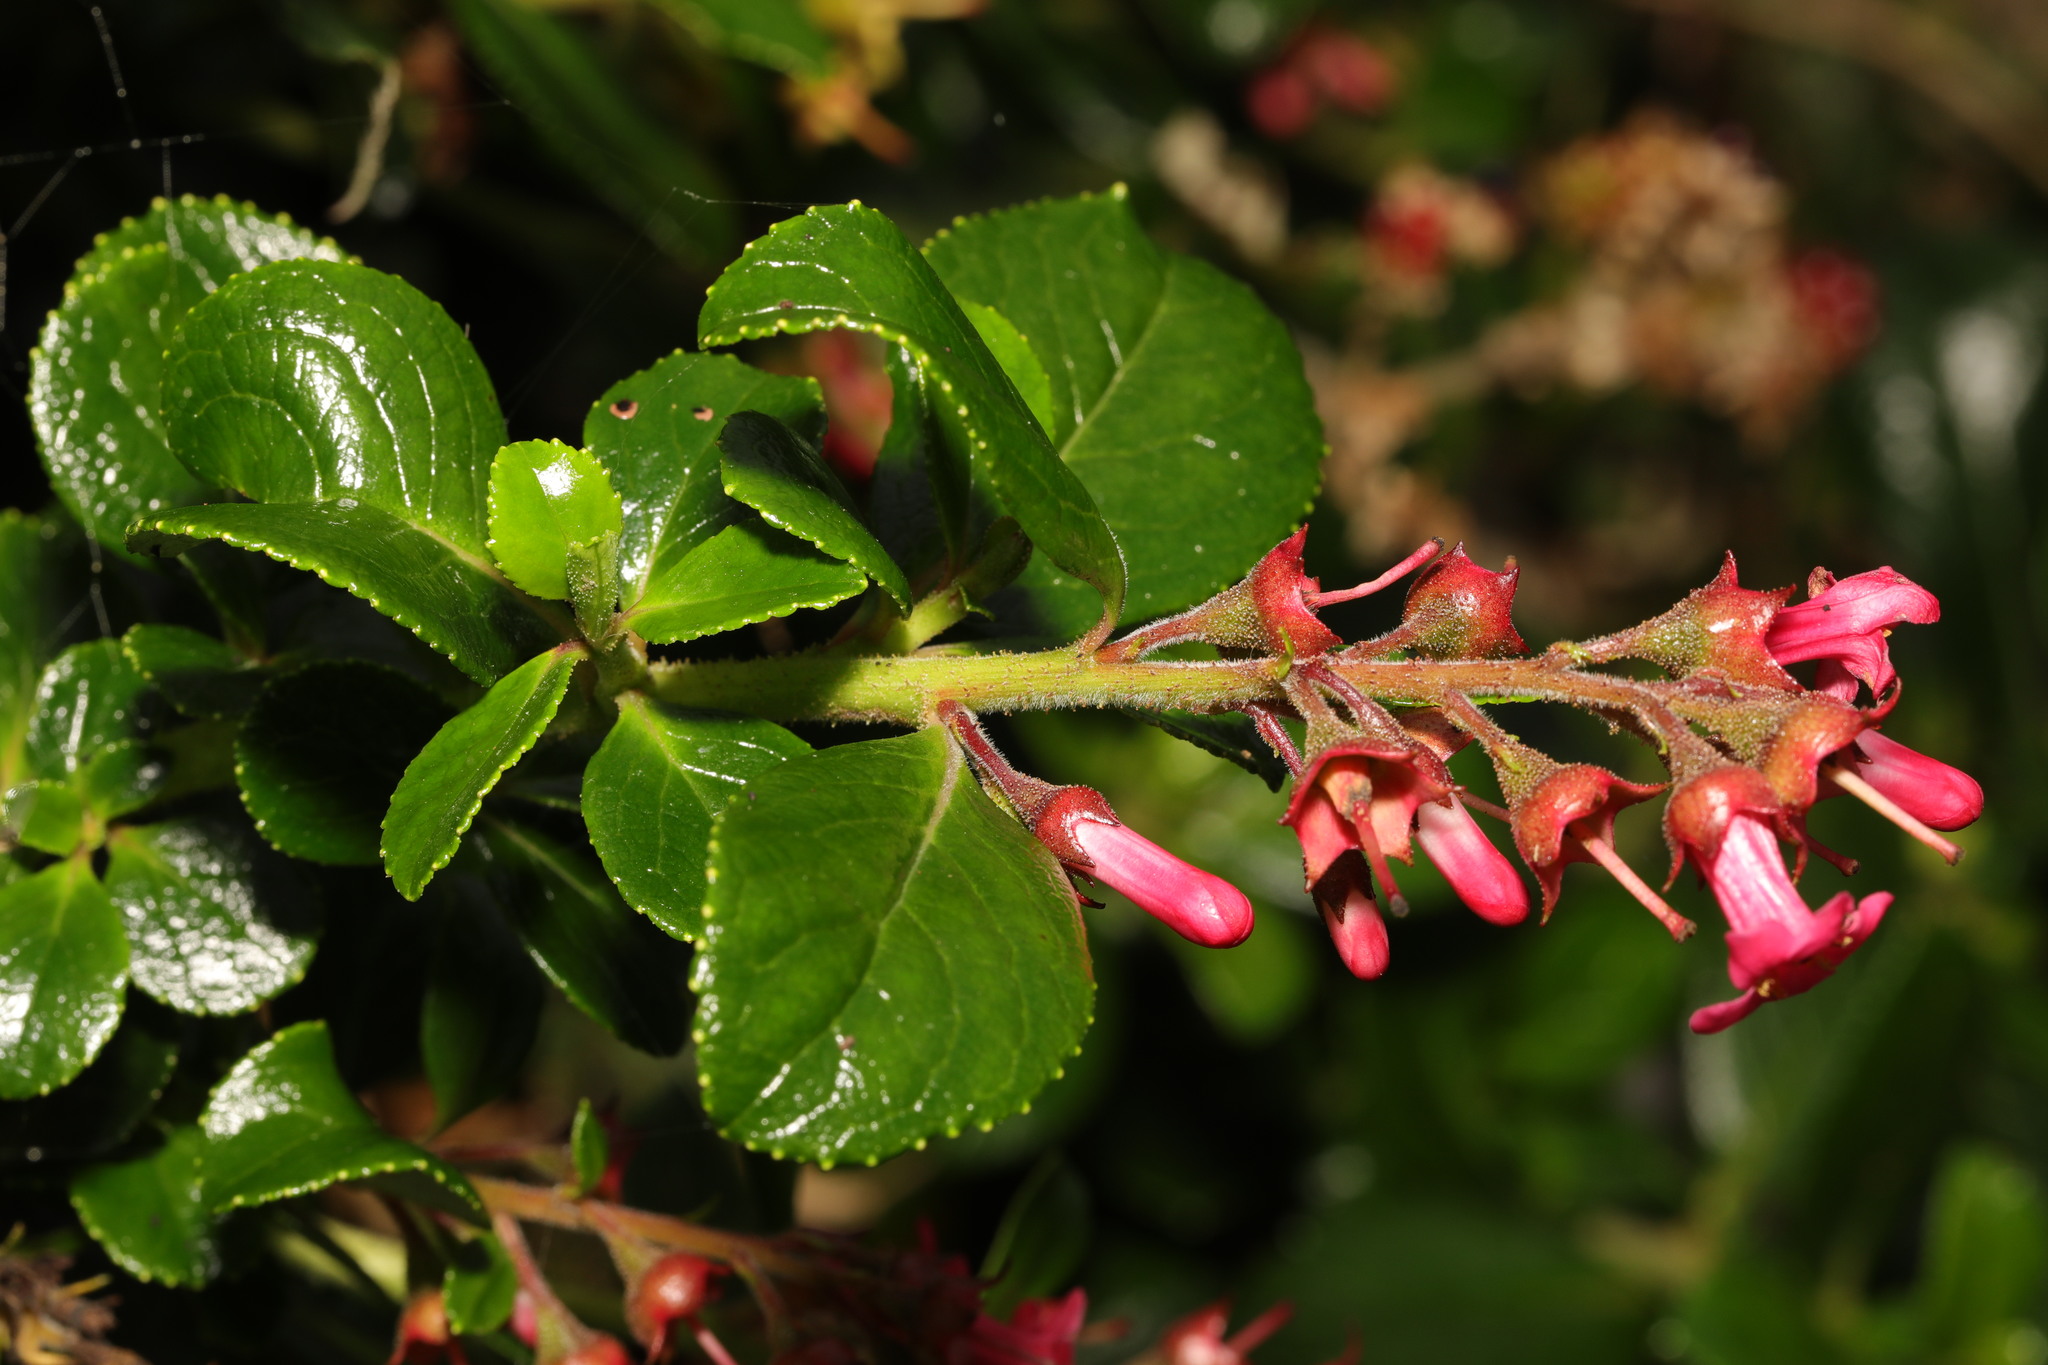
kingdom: Plantae
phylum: Tracheophyta
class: Magnoliopsida
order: Escalloniales
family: Escalloniaceae
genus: Escallonia
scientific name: Escallonia rubra
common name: Redclaws
